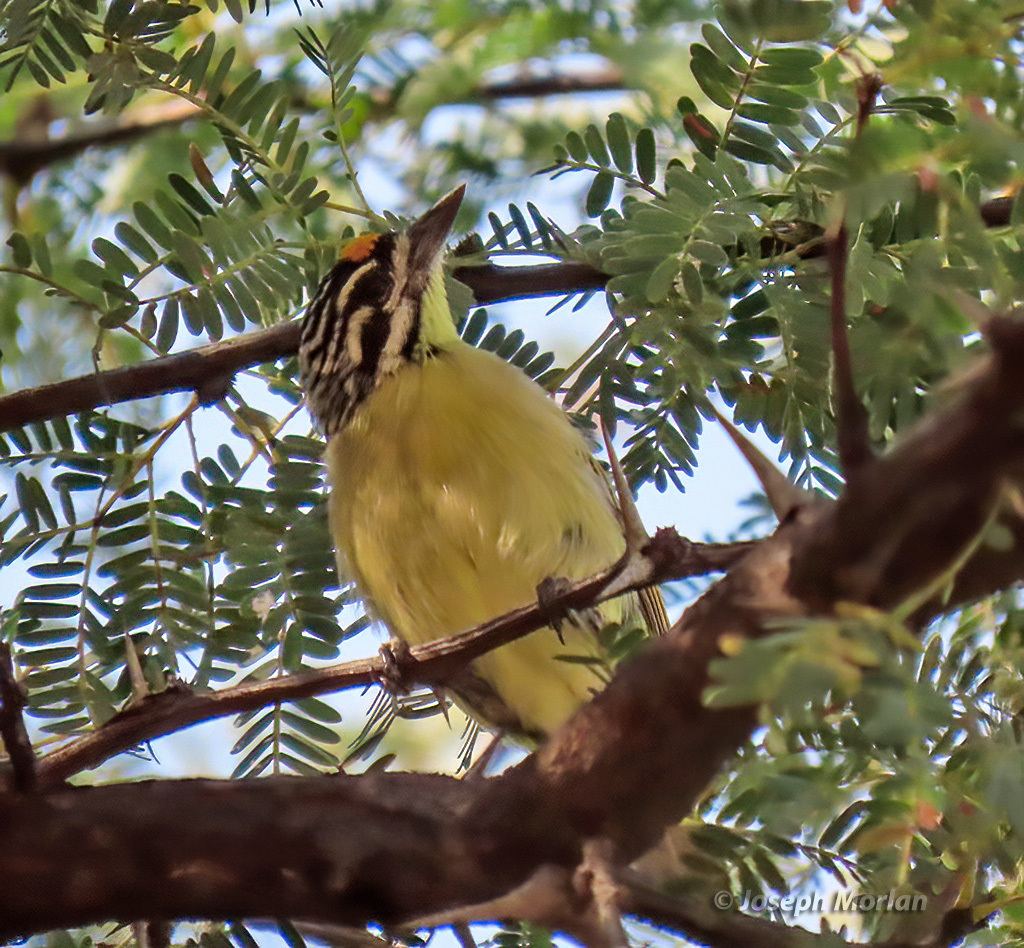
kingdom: Animalia
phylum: Chordata
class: Aves
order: Piciformes
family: Lybiidae
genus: Pogoniulus
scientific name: Pogoniulus chrysoconus
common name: Yellow-fronted tinkerbird
